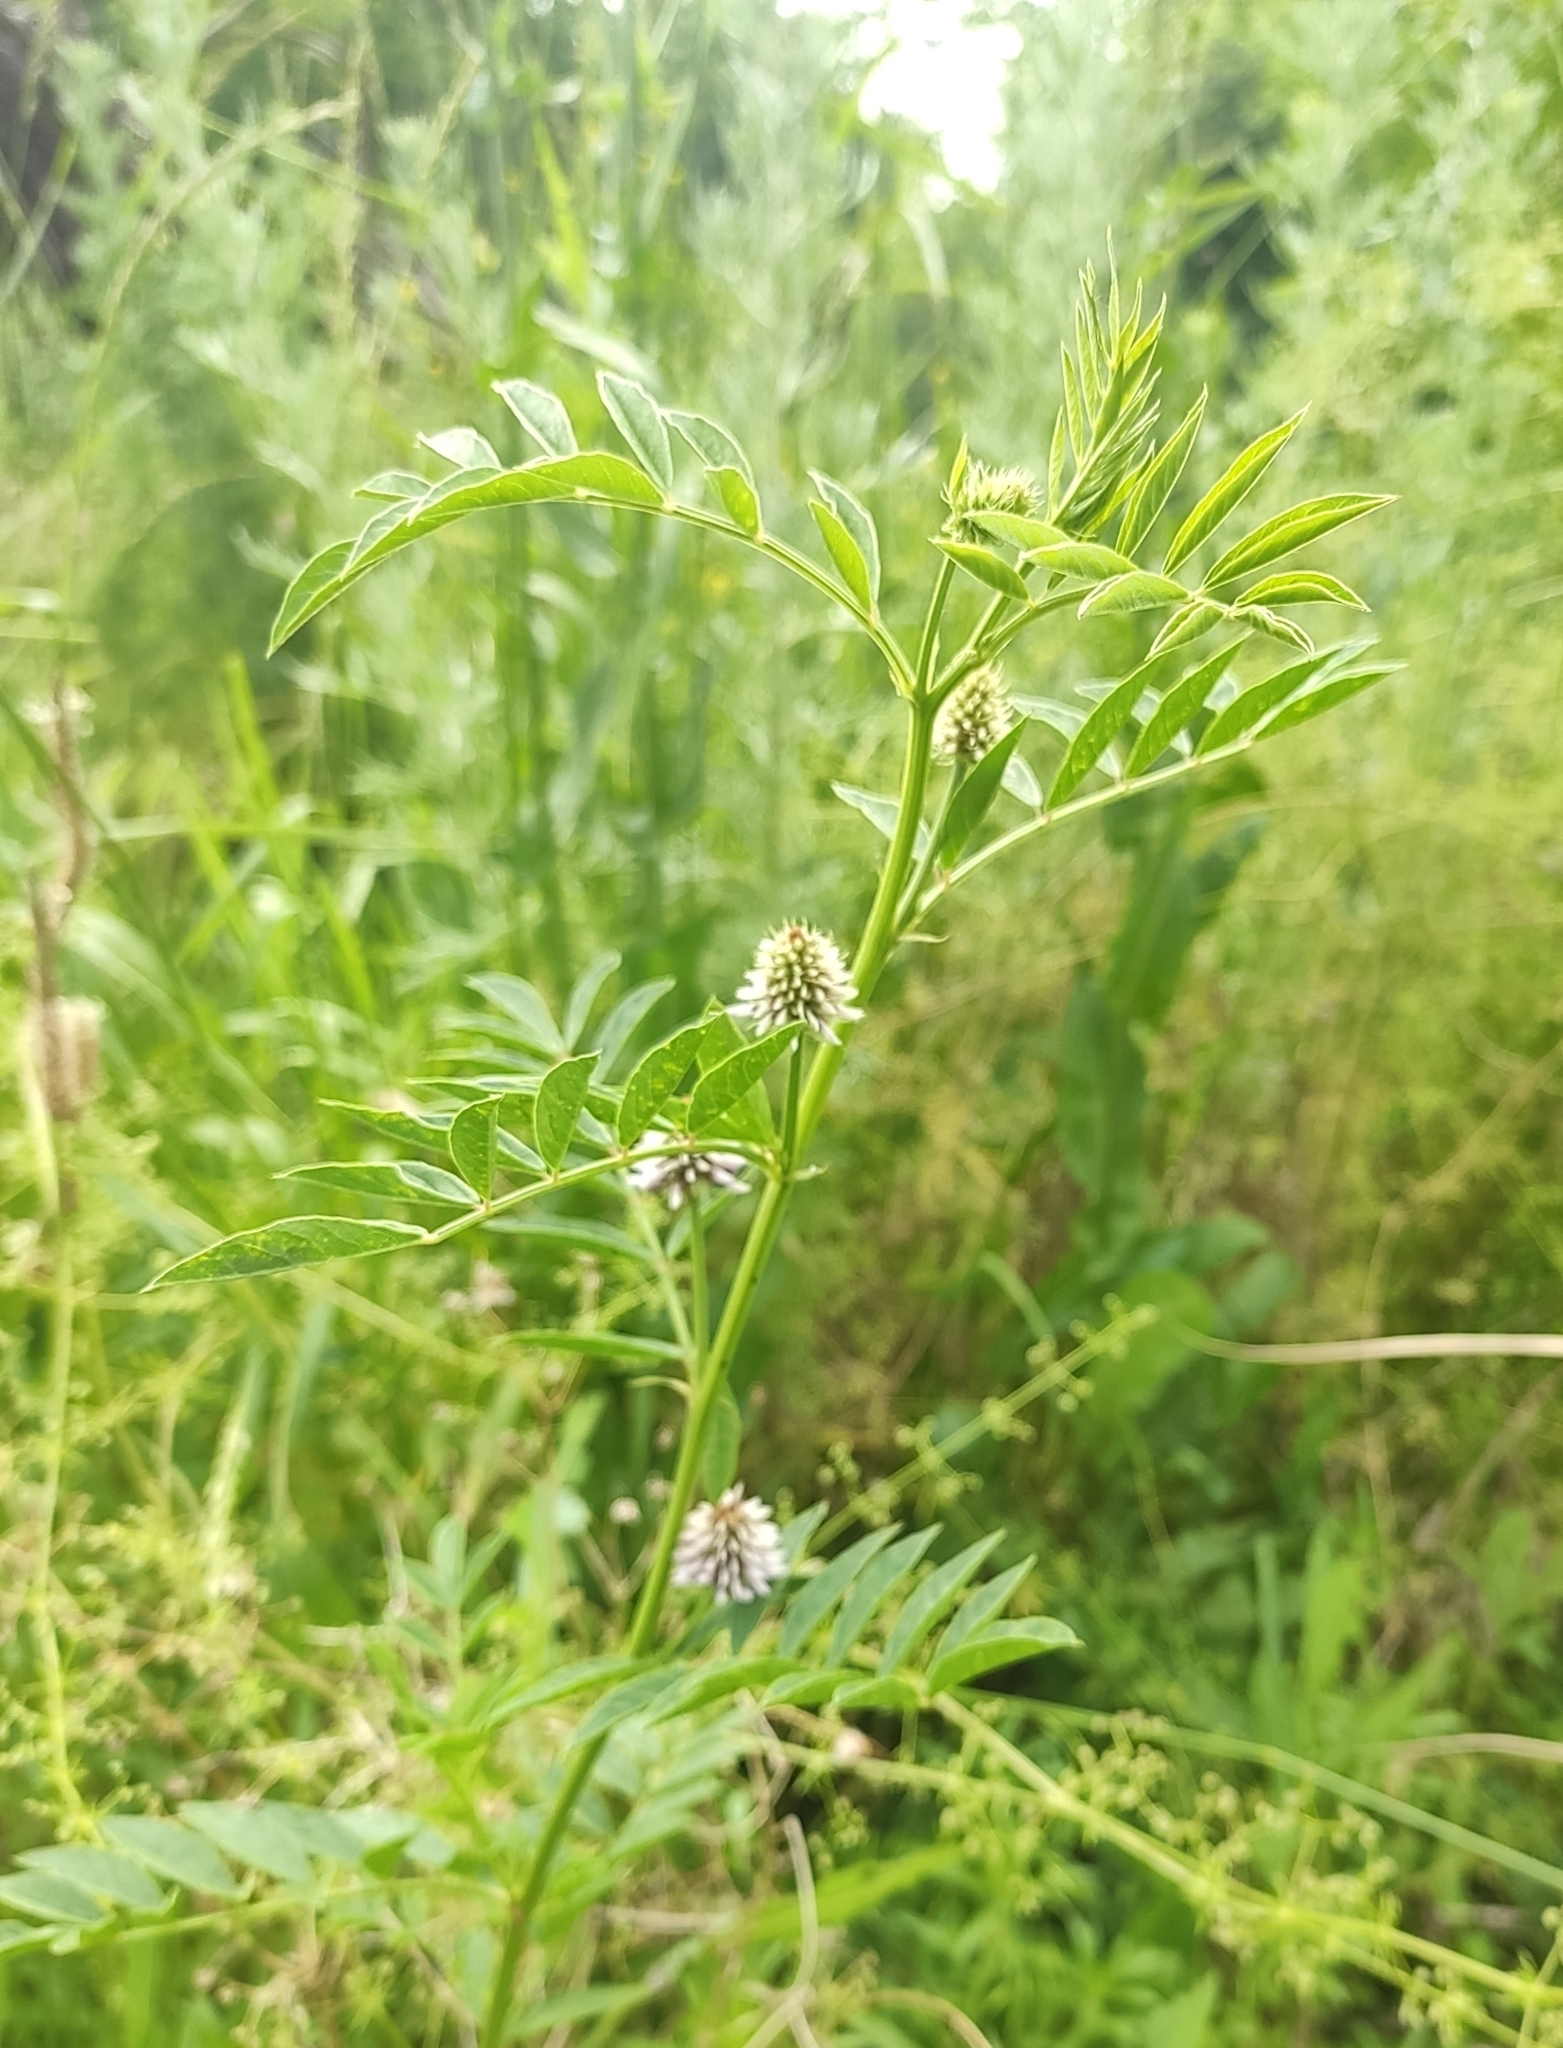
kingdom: Plantae
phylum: Tracheophyta
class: Magnoliopsida
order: Fabales
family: Fabaceae
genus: Glycyrrhiza
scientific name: Glycyrrhiza echinata
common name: German liquorice
